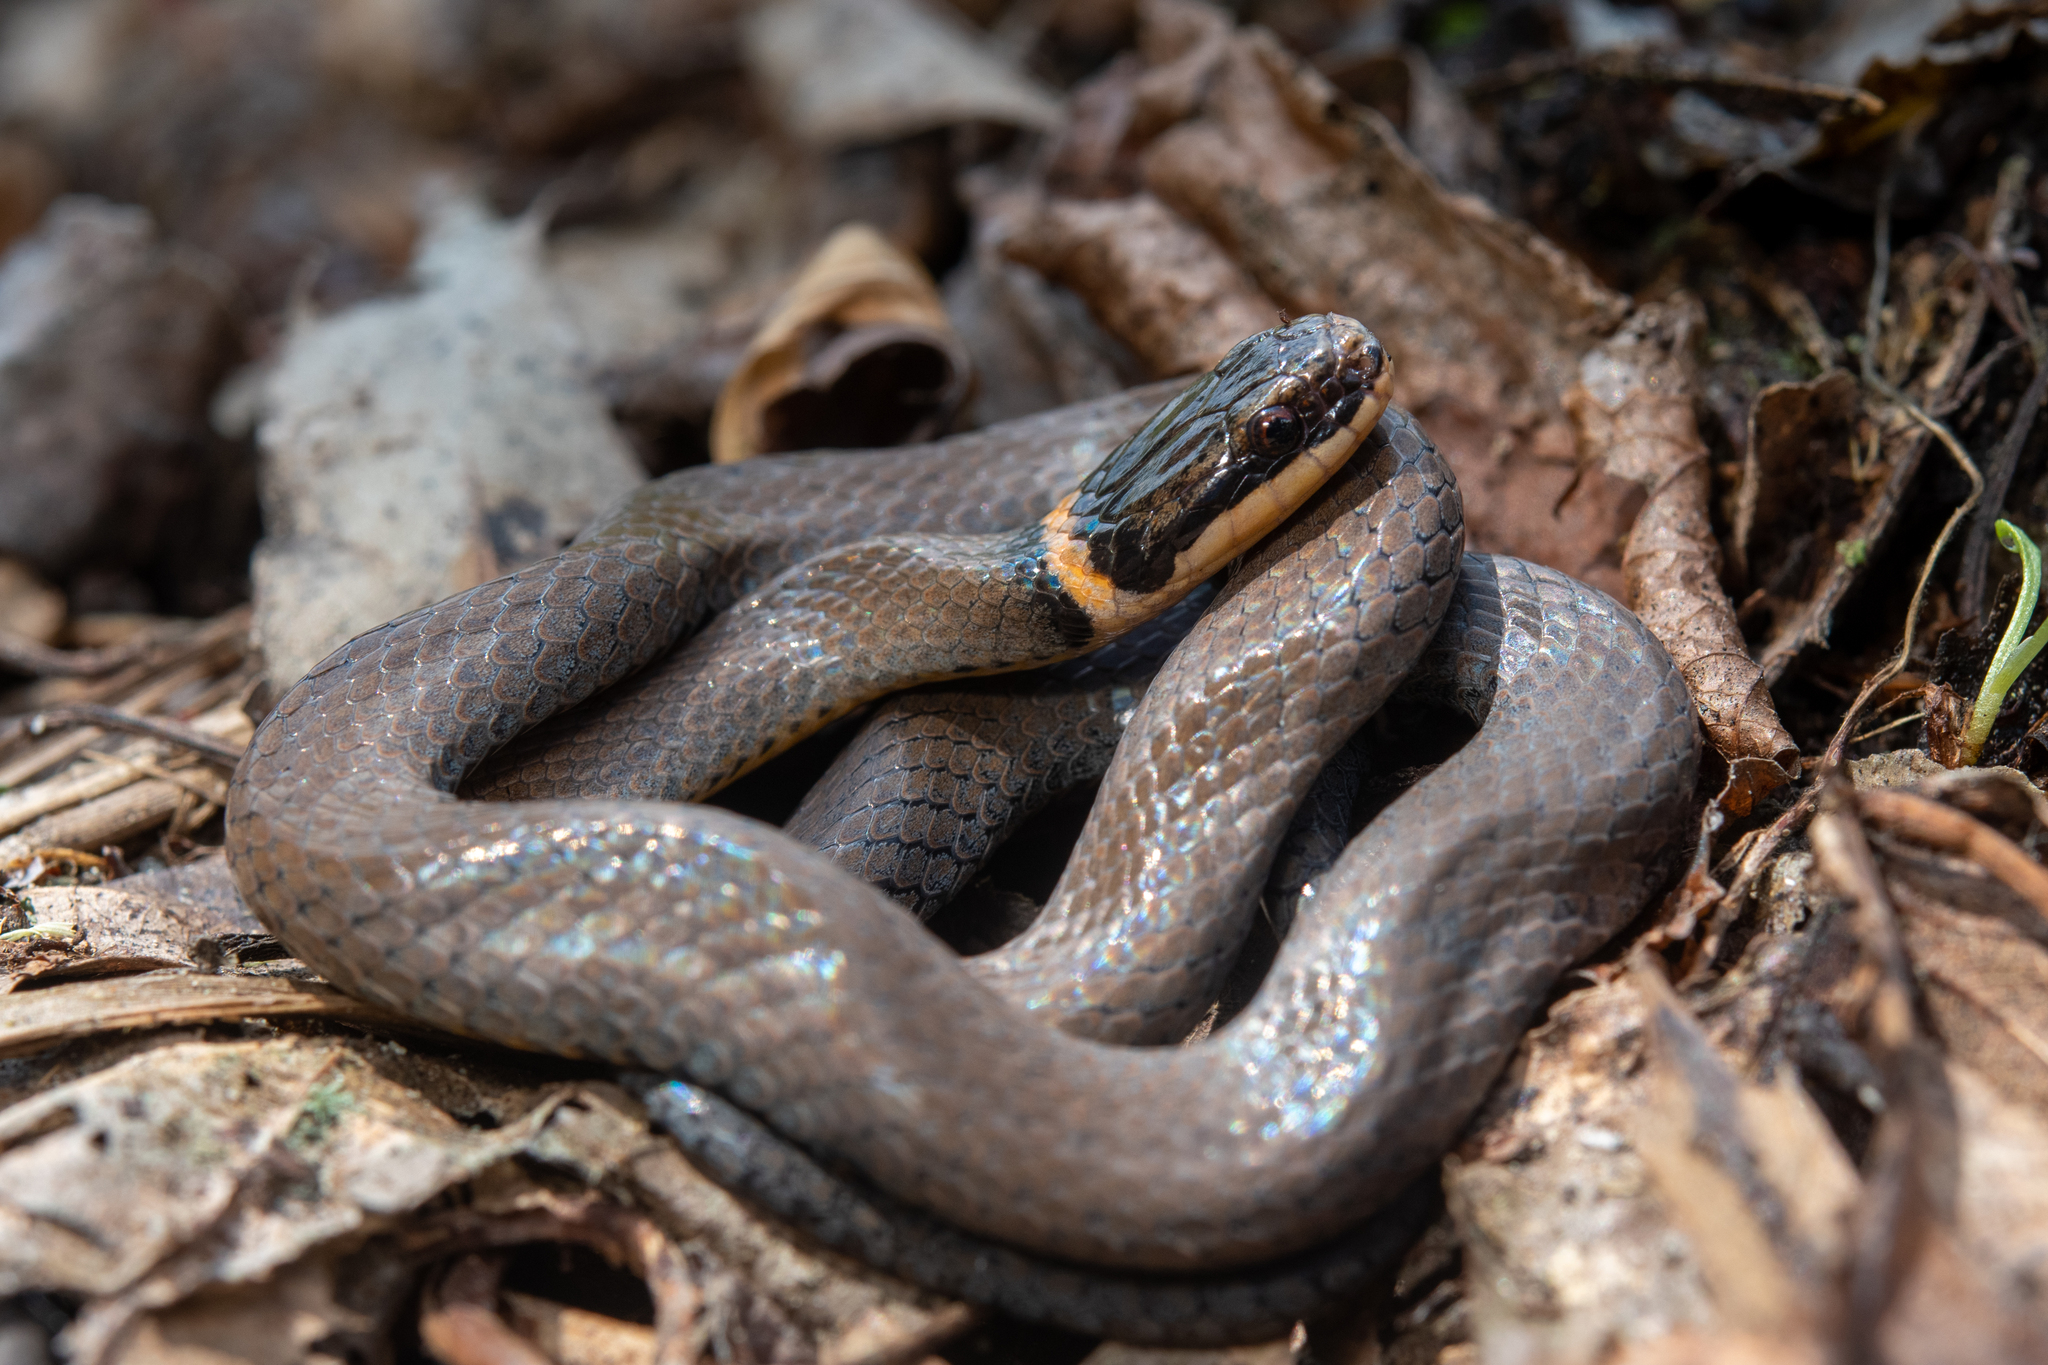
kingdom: Animalia
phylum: Chordata
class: Squamata
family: Colubridae
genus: Diadophis
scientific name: Diadophis punctatus
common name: Ringneck snake
